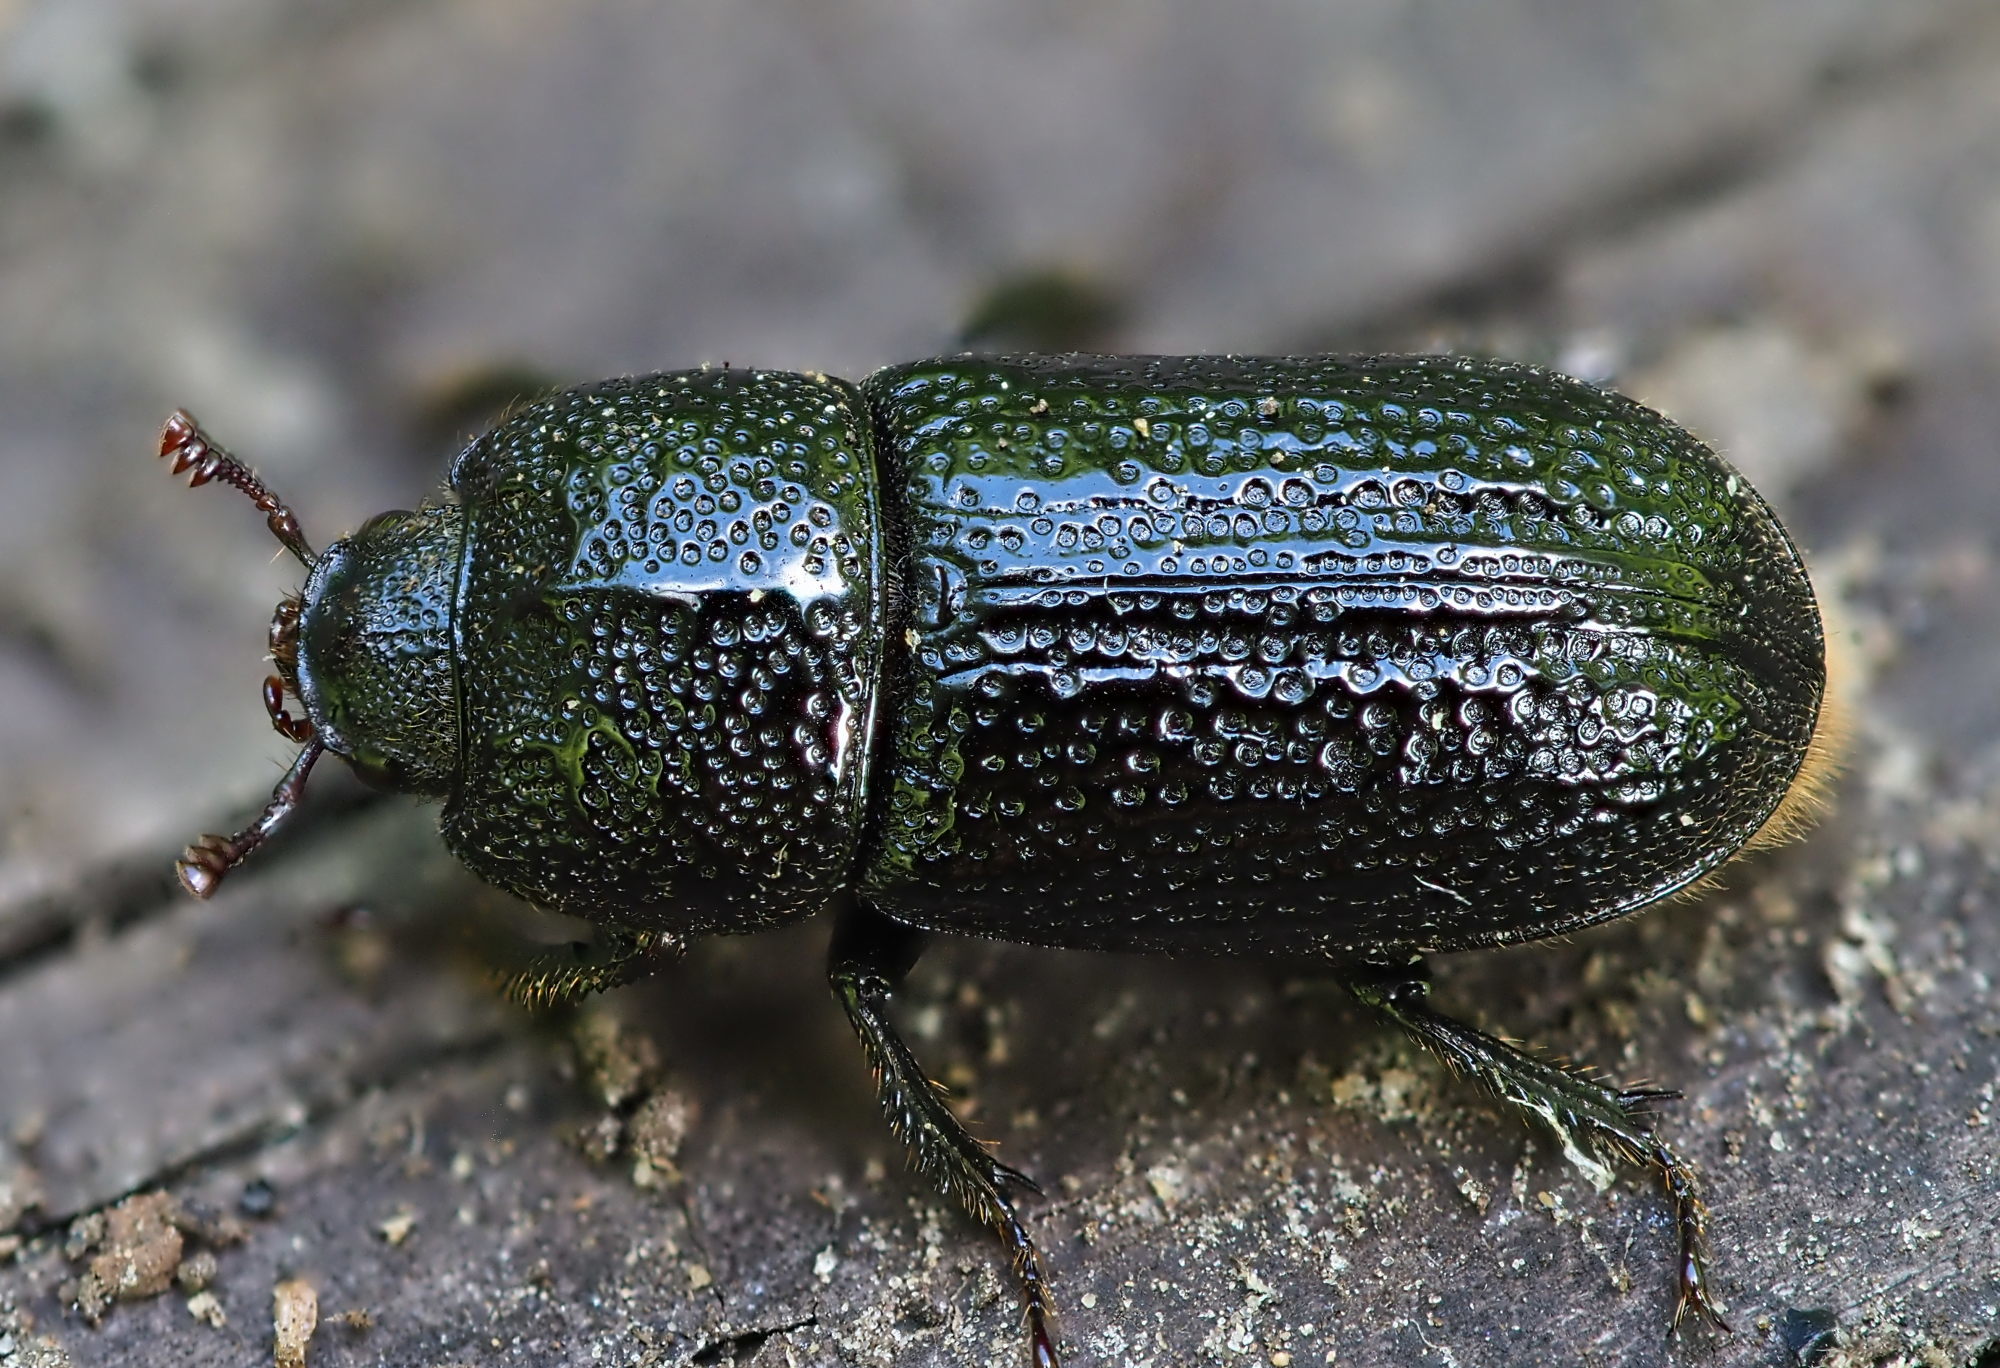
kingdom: Animalia
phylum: Arthropoda
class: Insecta
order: Coleoptera
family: Lucanidae
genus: Sinodendron
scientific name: Sinodendron cylindricum
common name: Rhinoceros beetle
